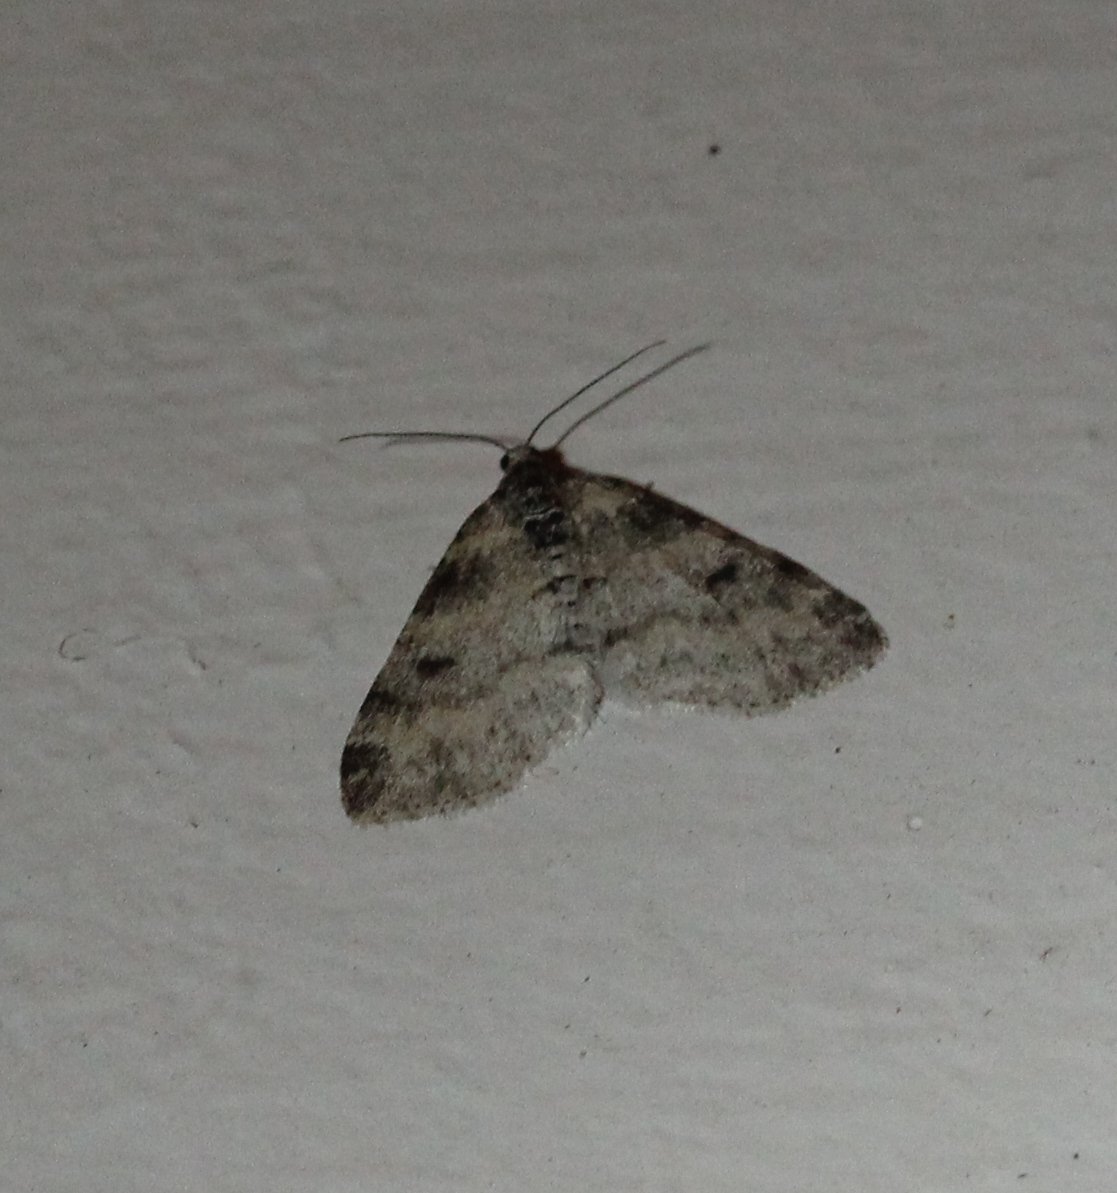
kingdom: Animalia
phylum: Arthropoda
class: Insecta
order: Lepidoptera
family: Geometridae
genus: Lobophora
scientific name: Lobophora nivigerata
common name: Powdered bigwing
